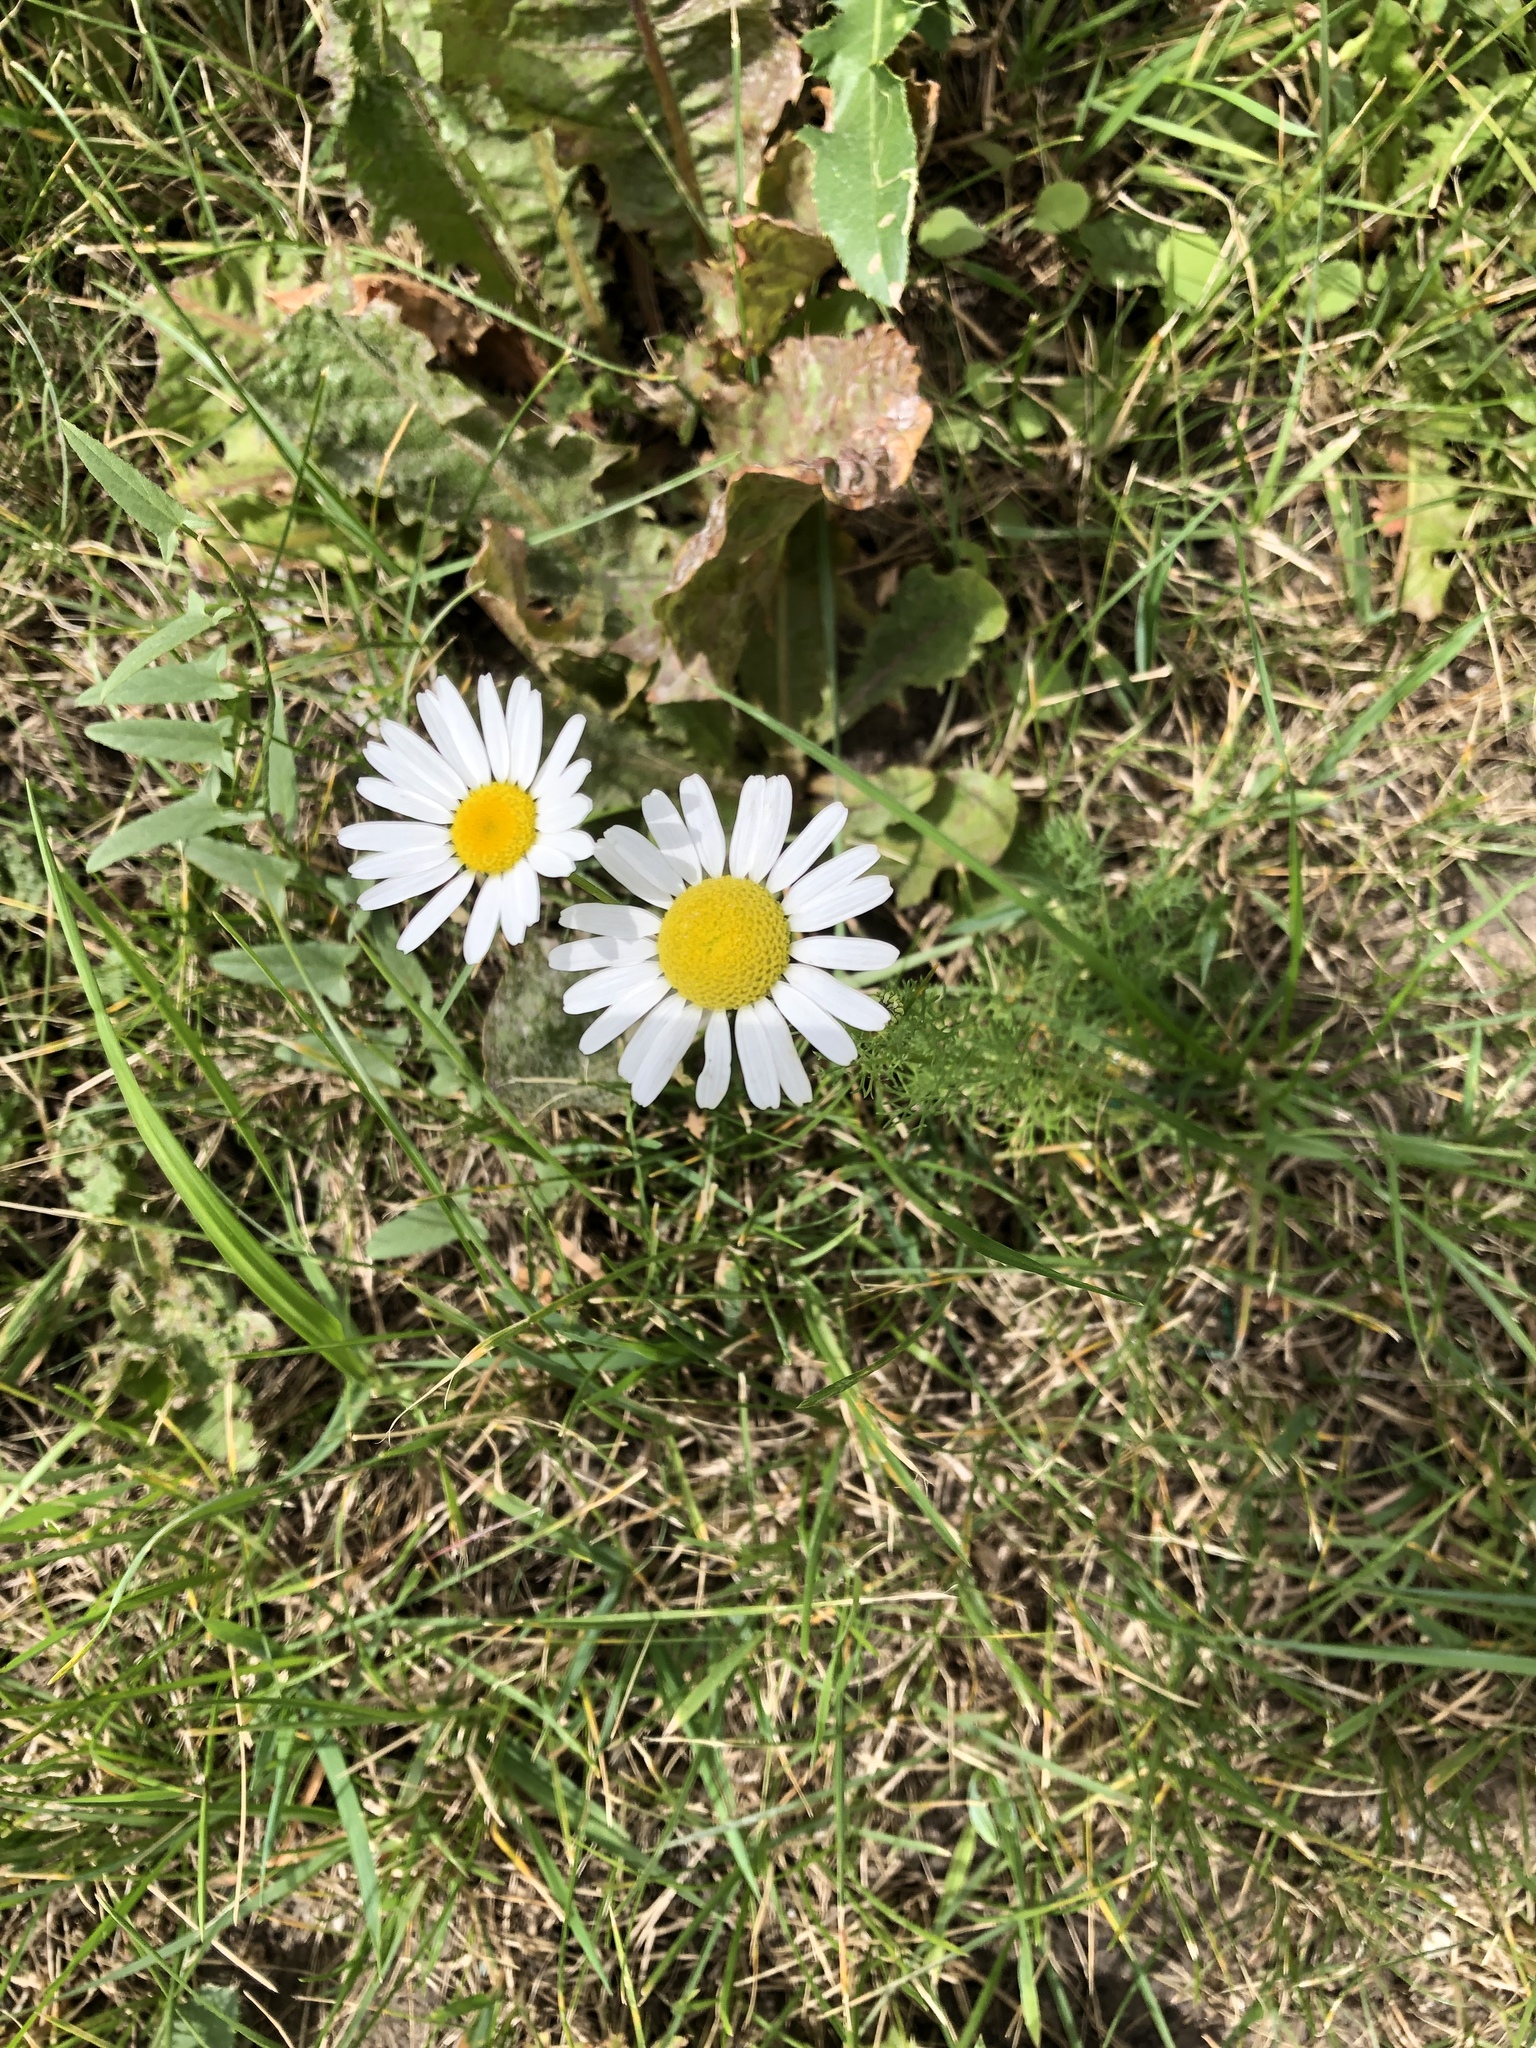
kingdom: Plantae
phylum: Tracheophyta
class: Magnoliopsida
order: Asterales
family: Asteraceae
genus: Tripleurospermum
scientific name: Tripleurospermum inodorum
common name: Scentless mayweed
